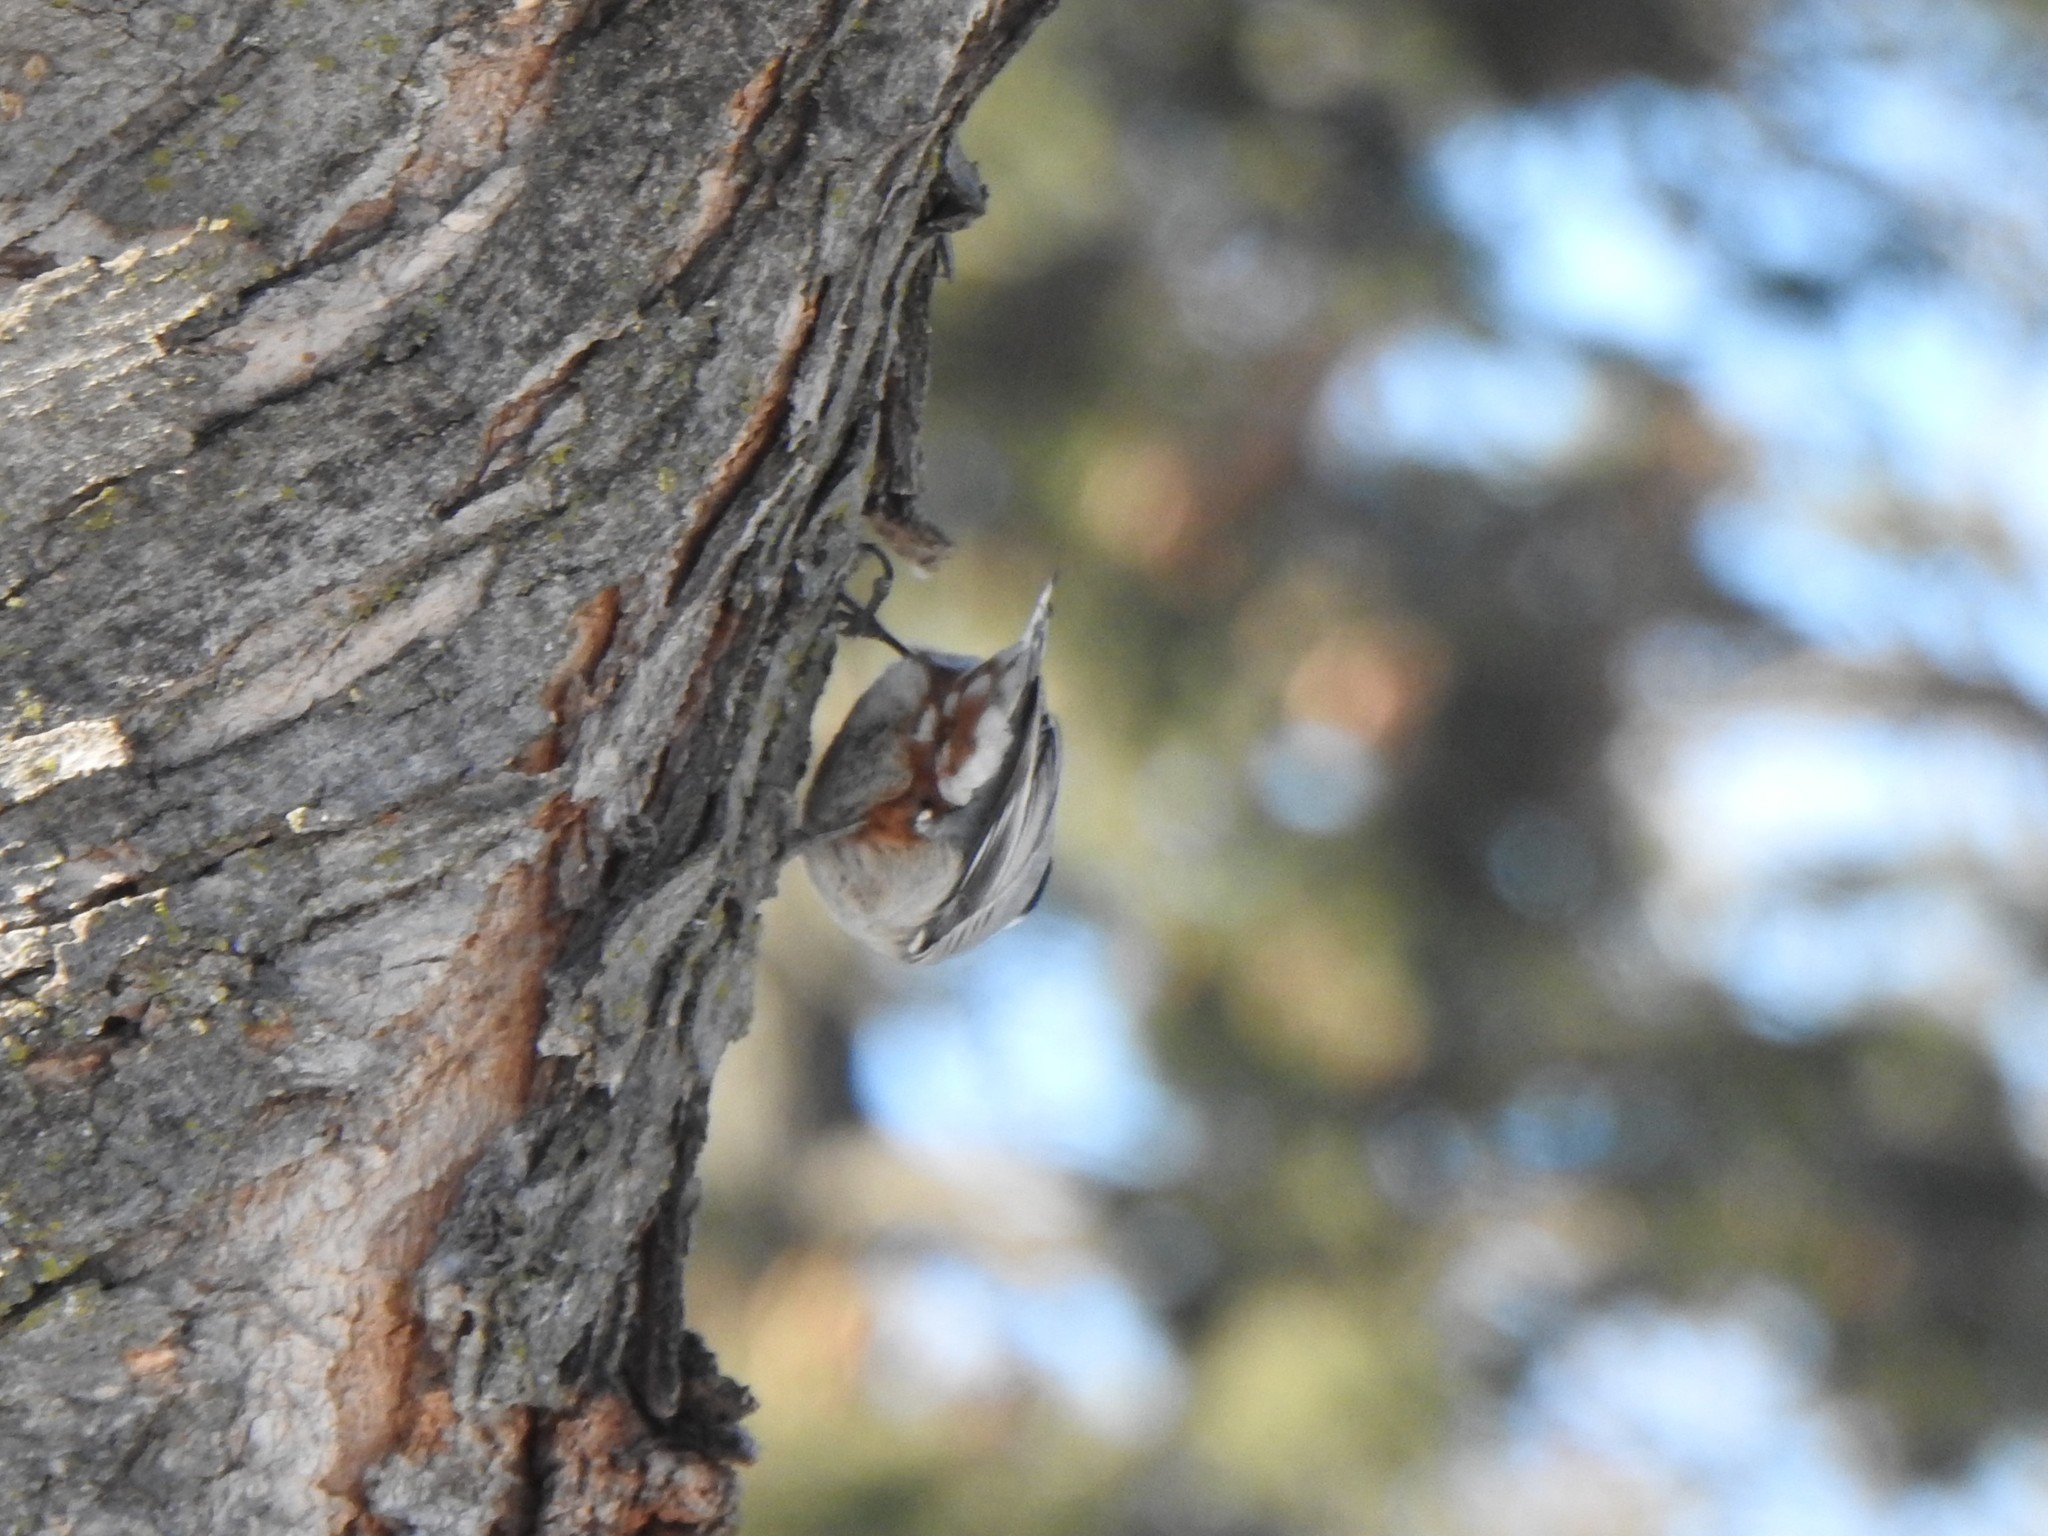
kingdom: Animalia
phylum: Chordata
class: Aves
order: Passeriformes
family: Sittidae
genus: Sitta
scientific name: Sitta carolinensis
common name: White-breasted nuthatch
